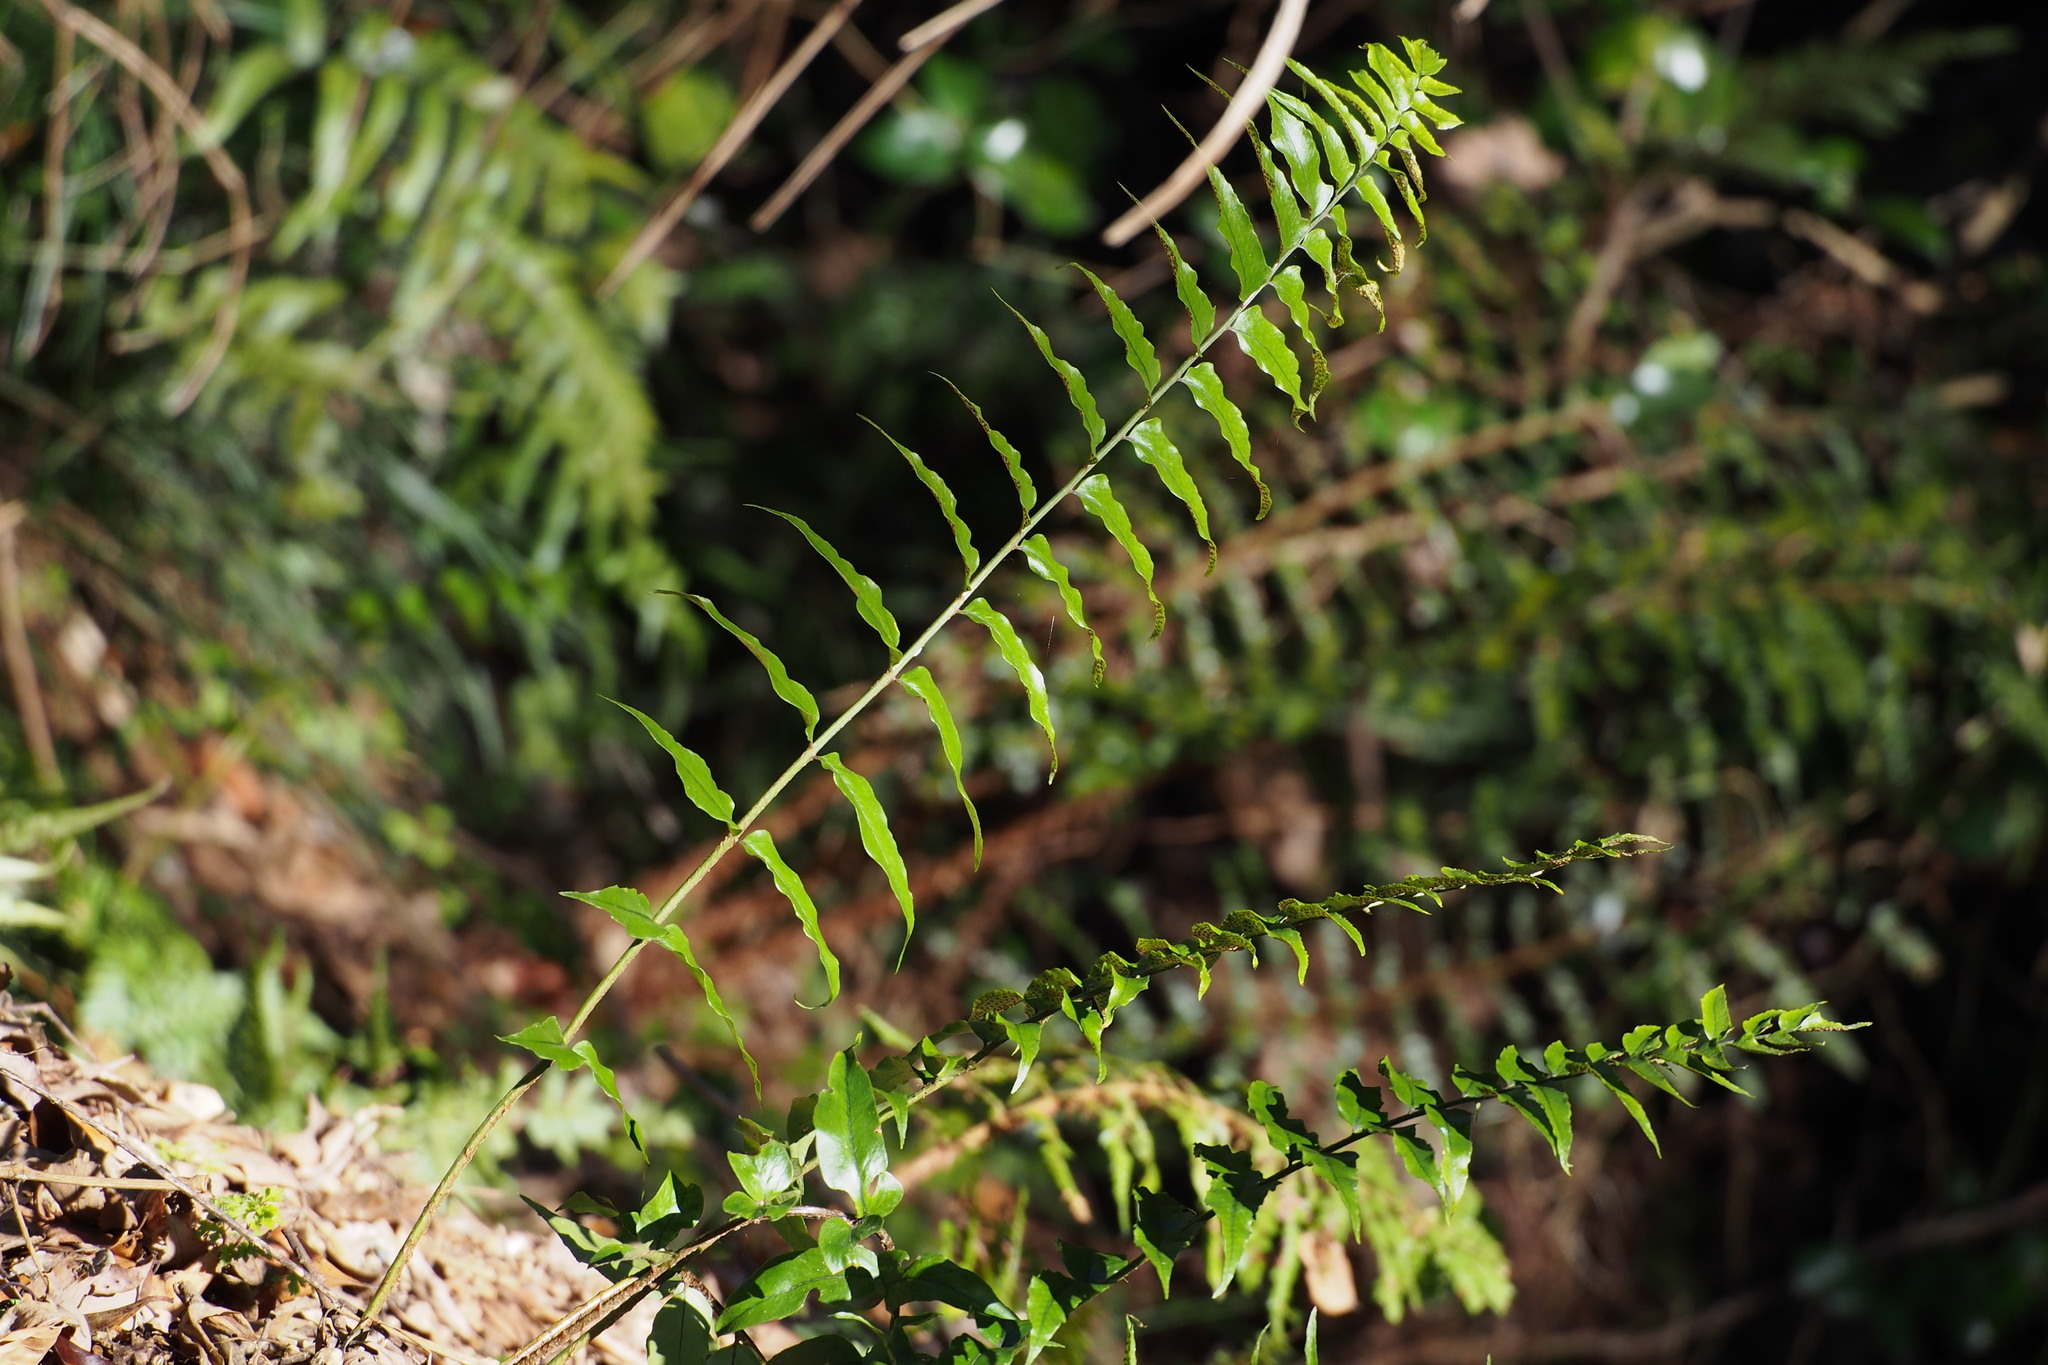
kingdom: Plantae
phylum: Tracheophyta
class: Polypodiopsida
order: Polypodiales
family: Dryopteridaceae
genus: Cyrtomium
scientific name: Cyrtomium fortunei
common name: Asian netvein hollyfern
